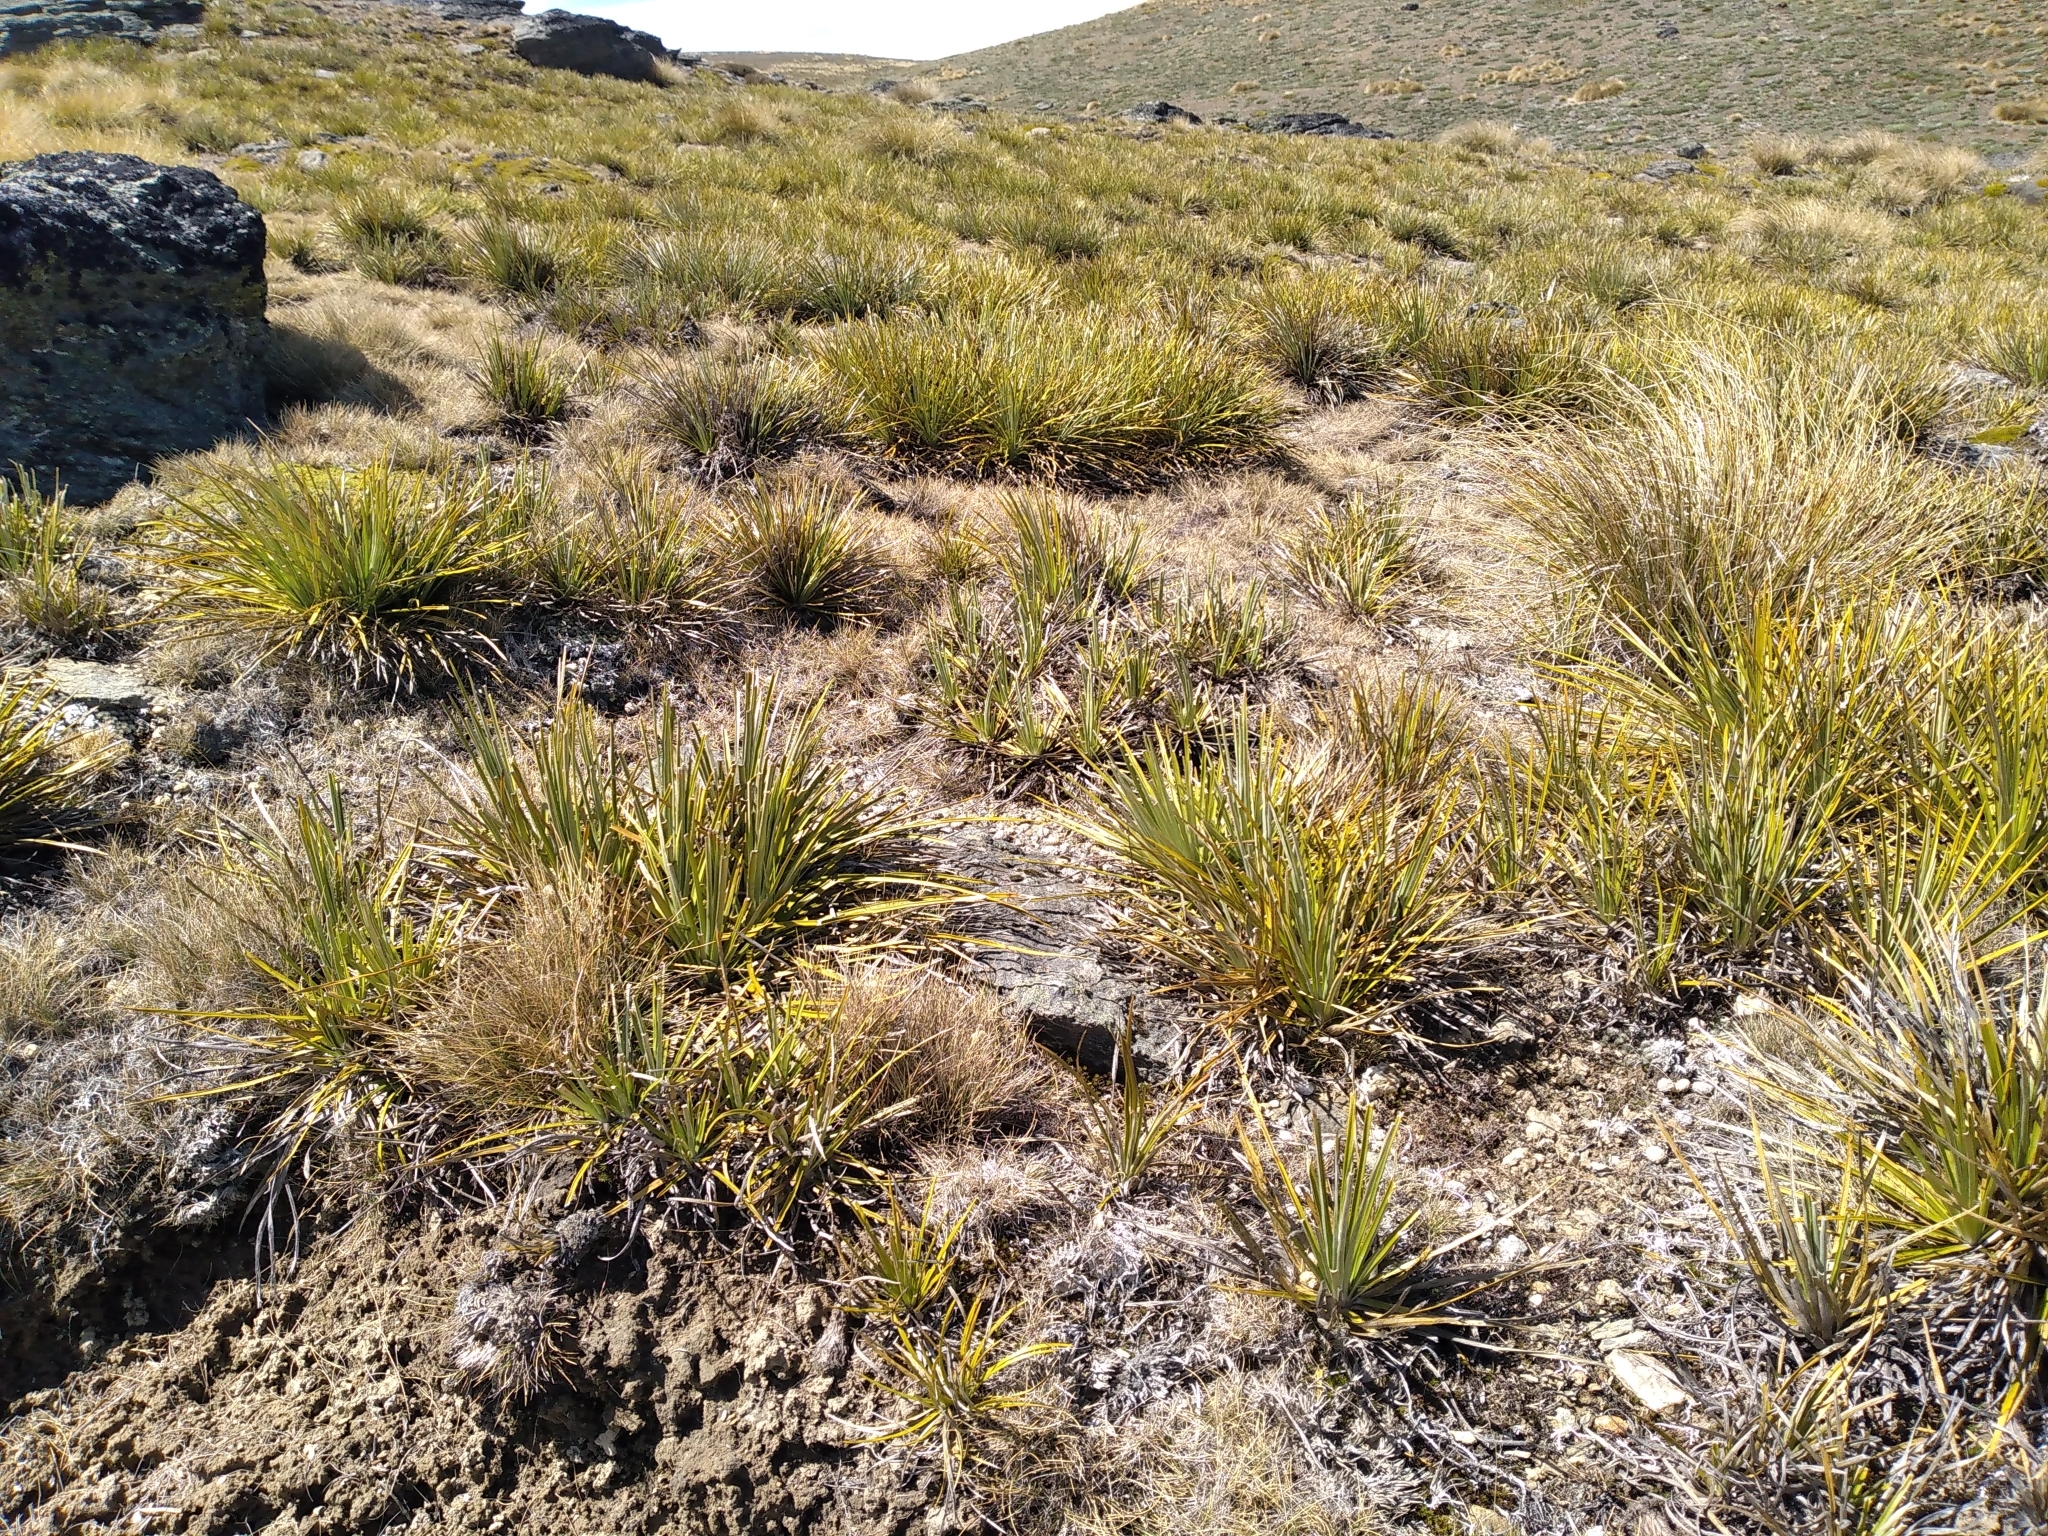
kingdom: Plantae
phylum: Tracheophyta
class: Magnoliopsida
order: Asterales
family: Asteraceae
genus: Celmisia
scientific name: Celmisia lyallii
